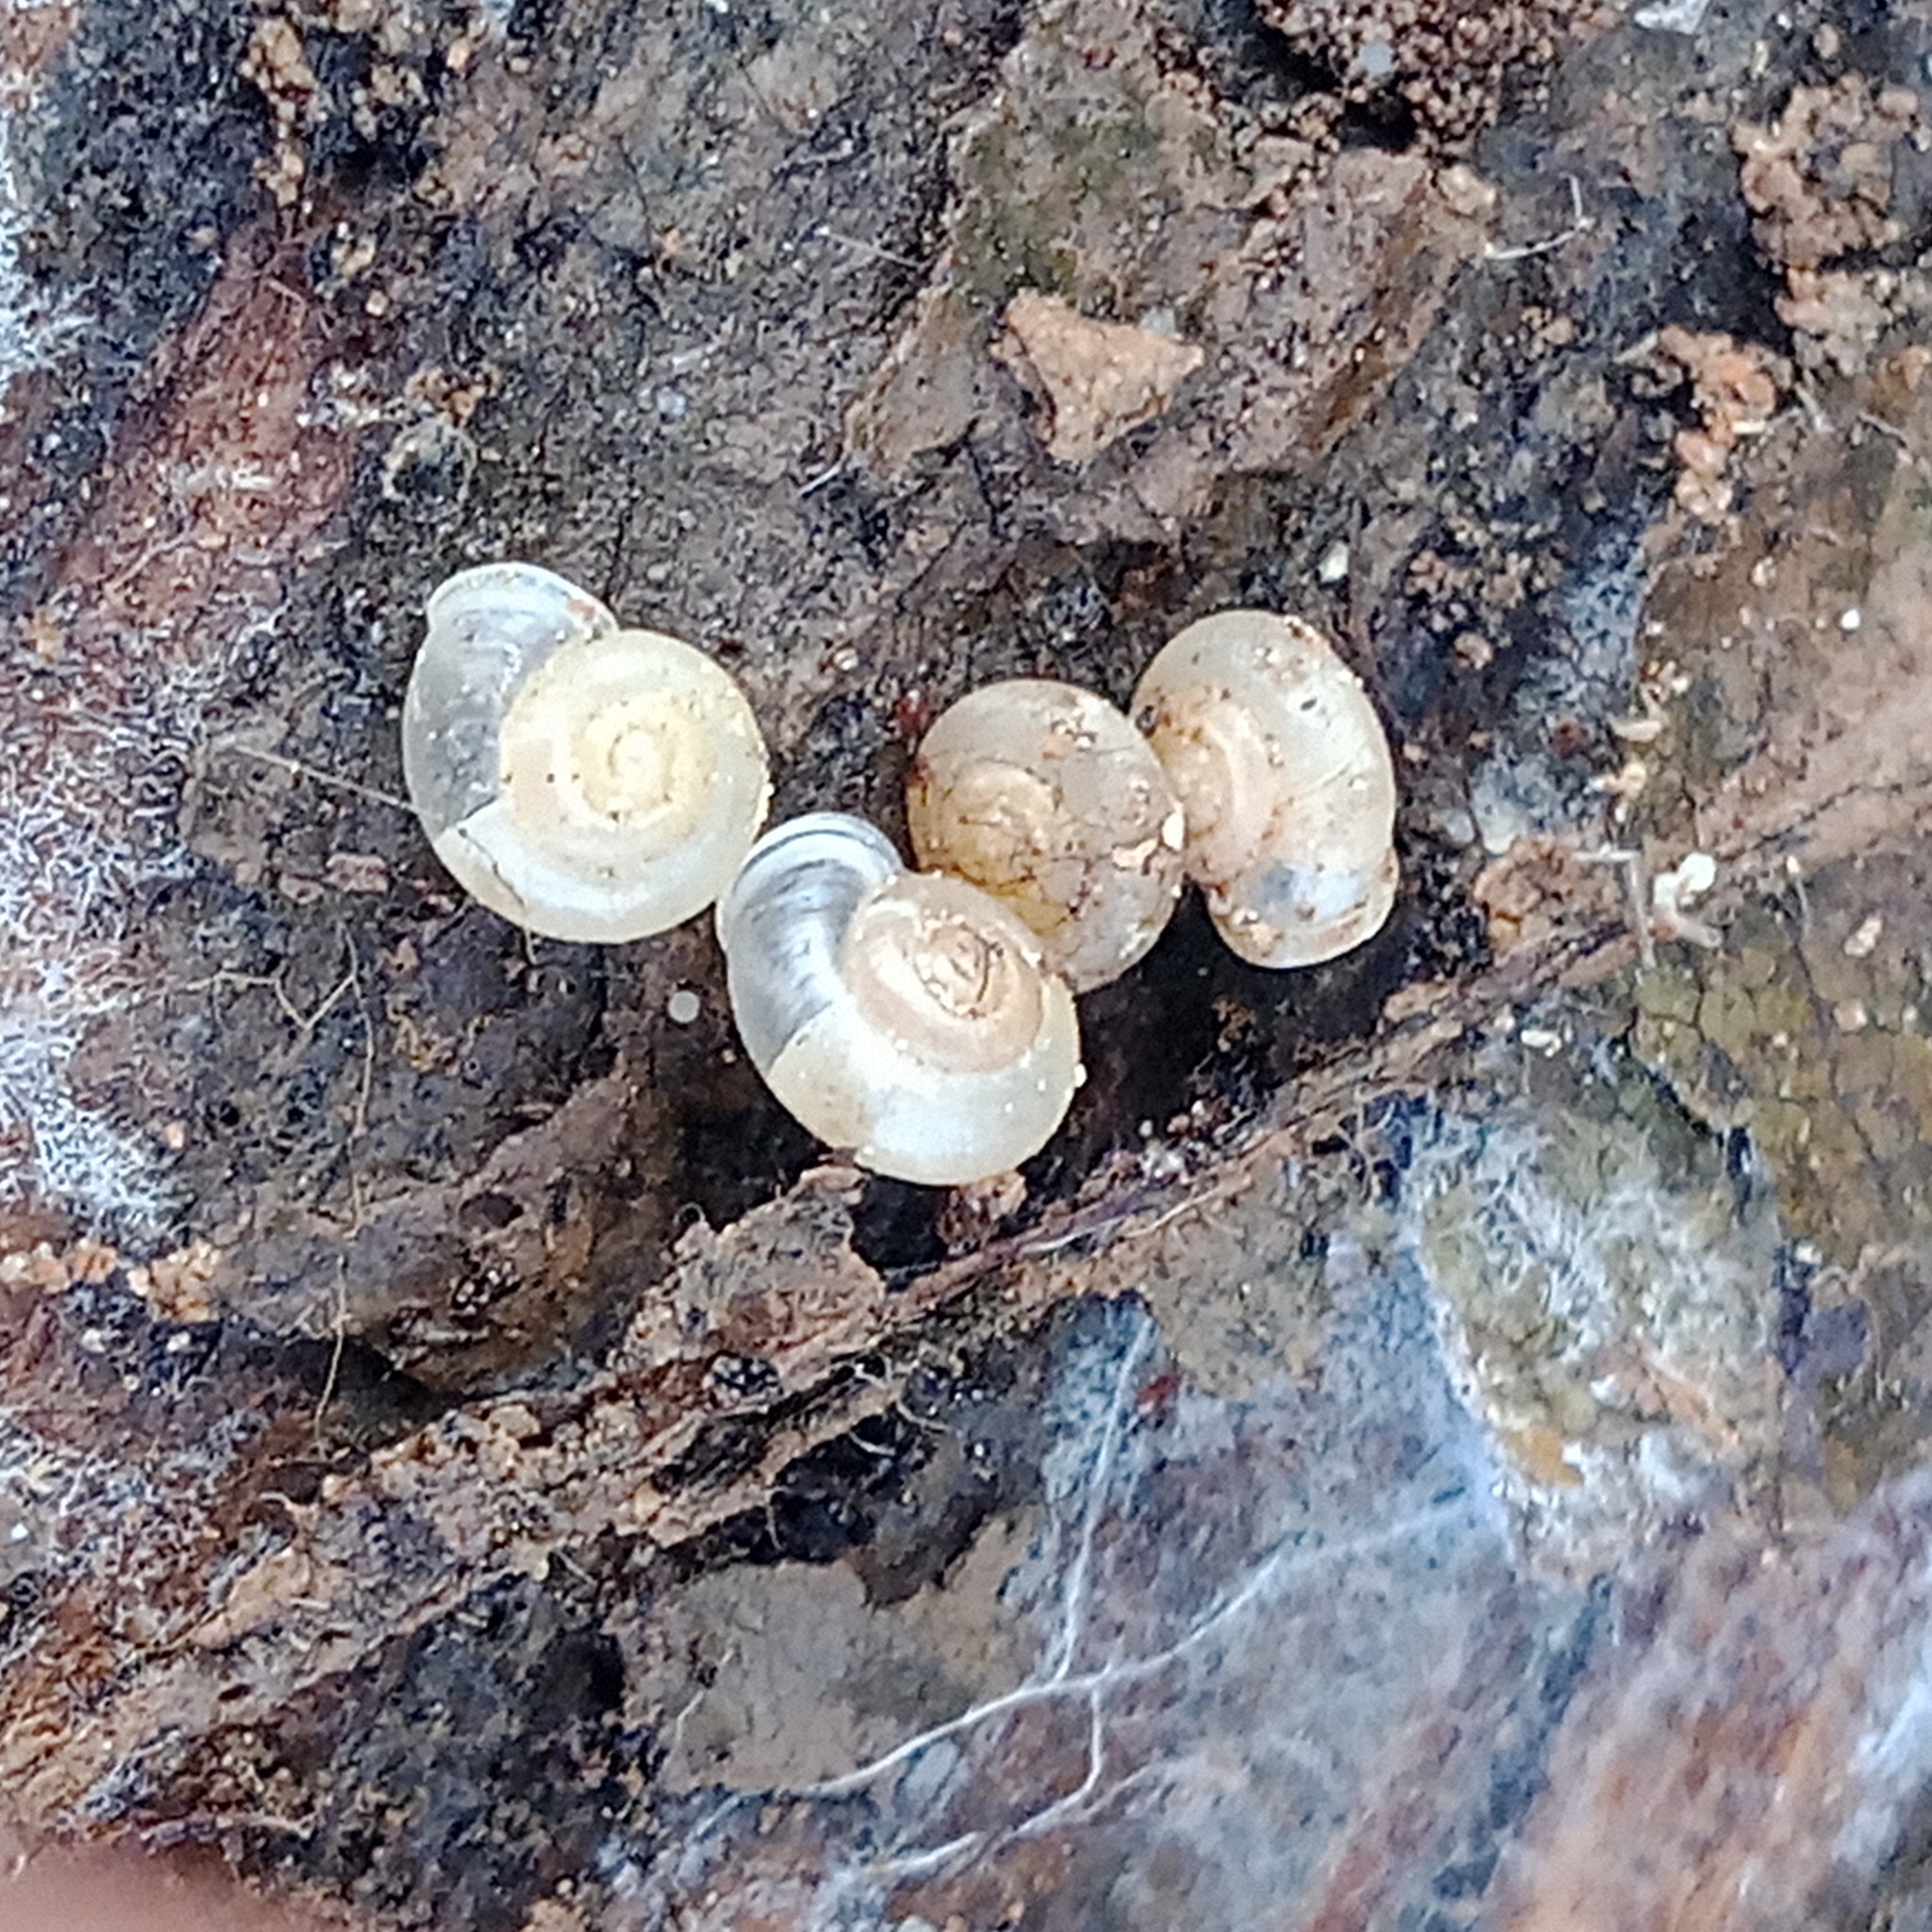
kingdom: Animalia
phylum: Mollusca
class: Gastropoda
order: Stylommatophora
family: Valloniidae
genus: Vallonia
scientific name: Vallonia pulchella
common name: Smooth grass snail
